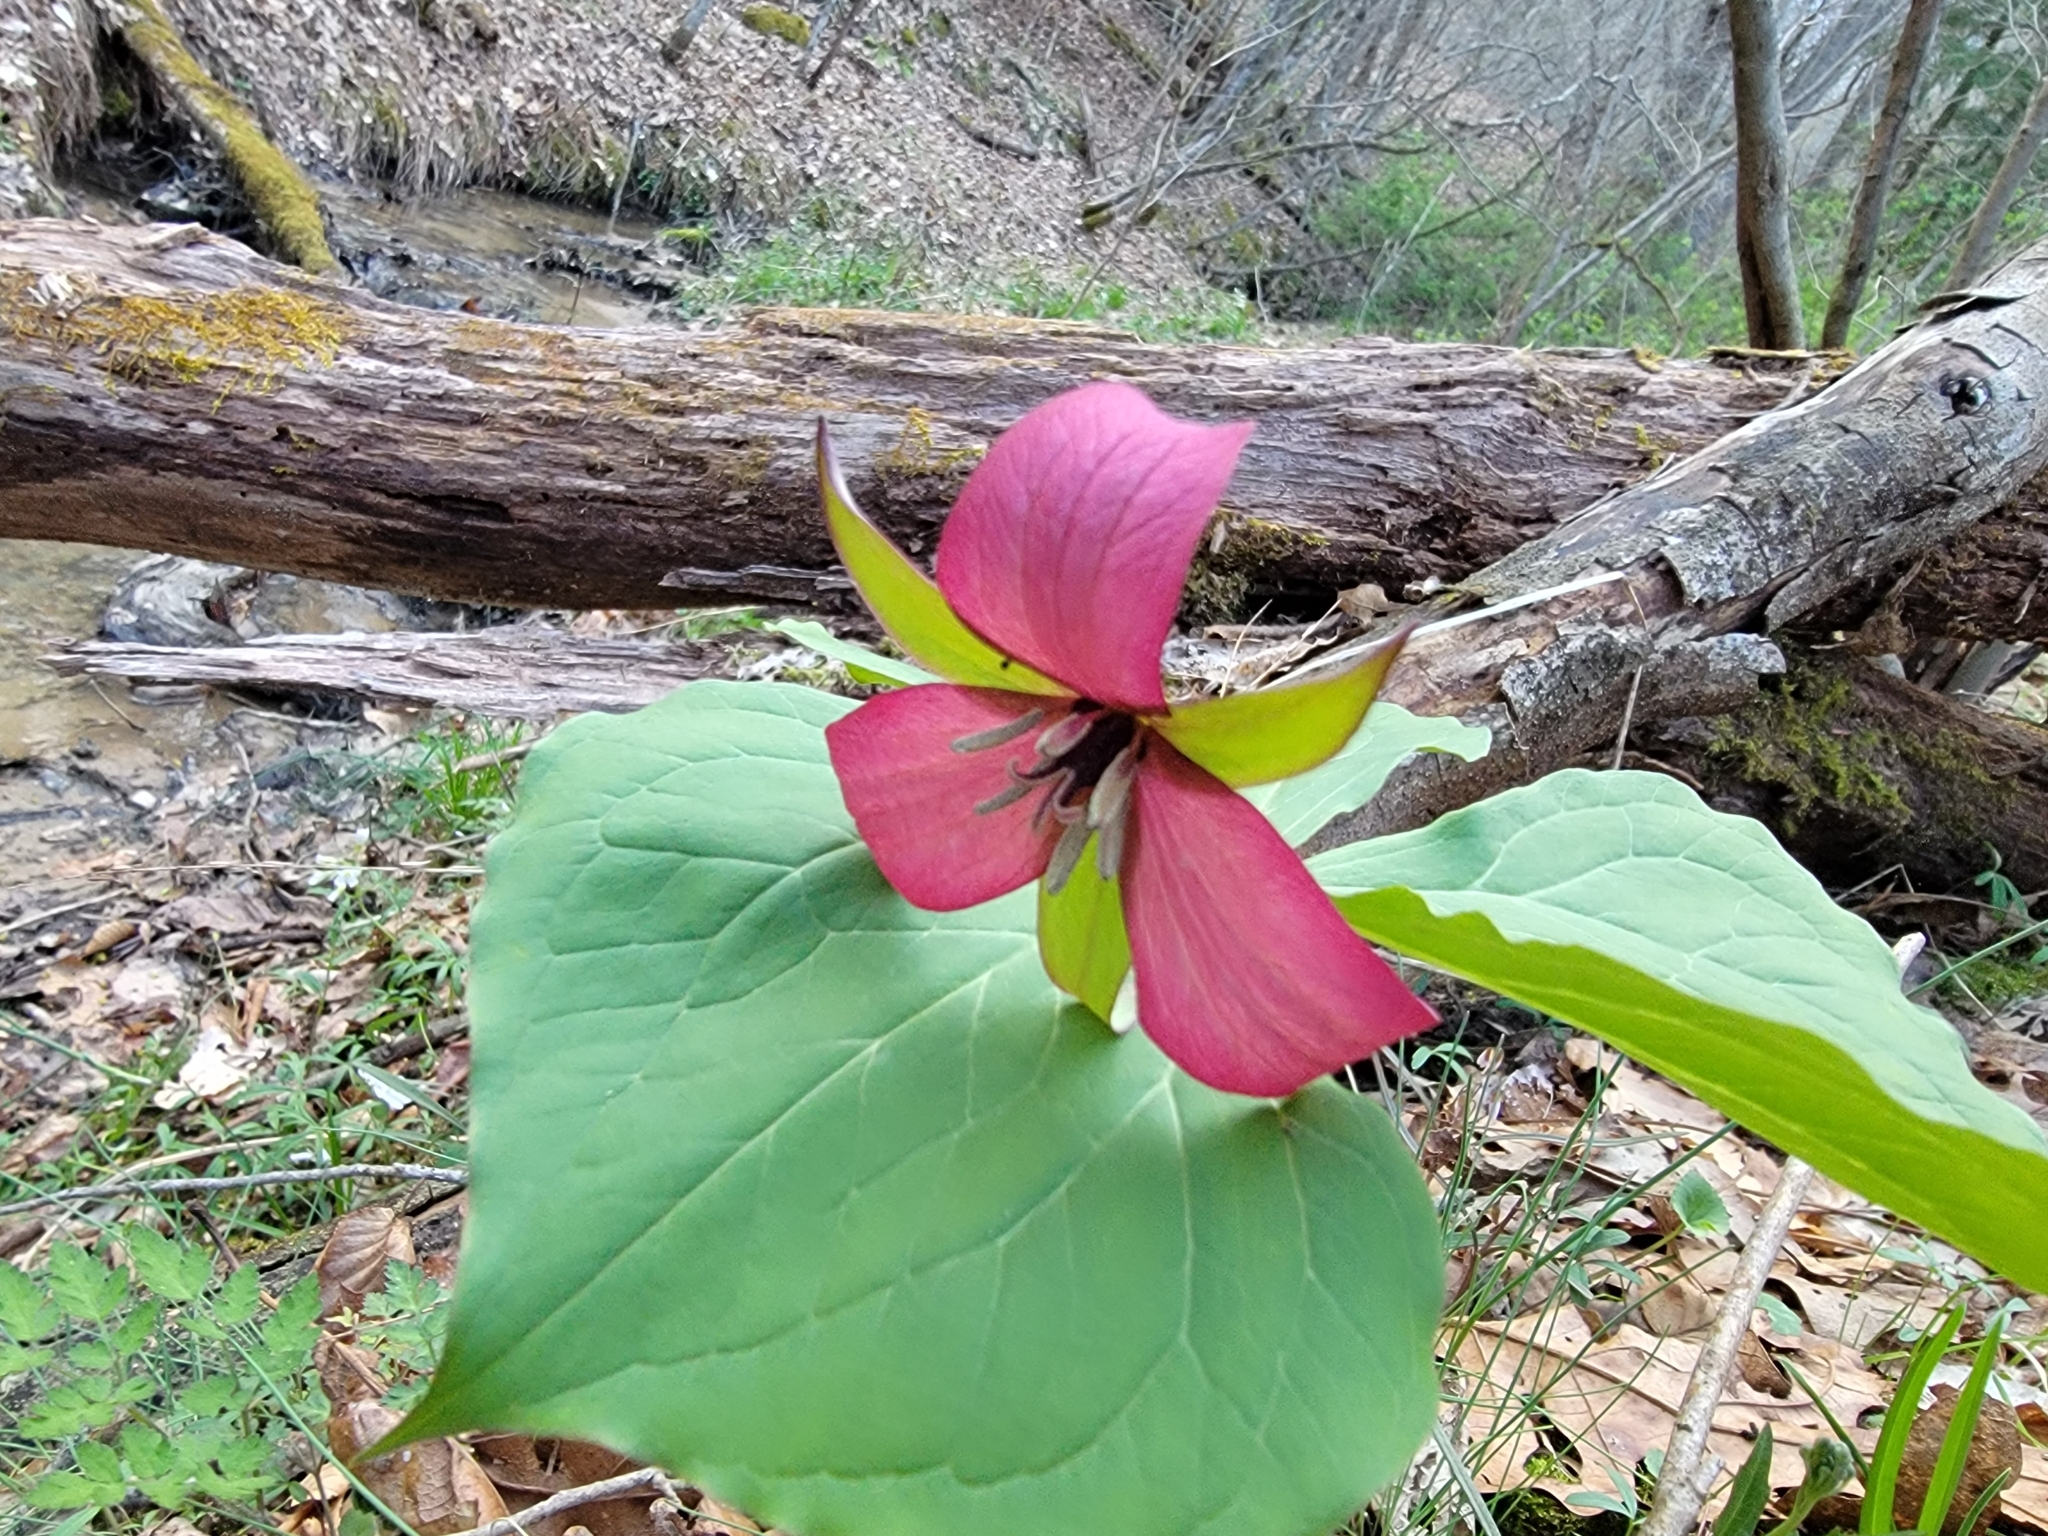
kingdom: Plantae
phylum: Tracheophyta
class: Liliopsida
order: Liliales
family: Melanthiaceae
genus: Trillium
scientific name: Trillium erectum
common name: Purple trillium
